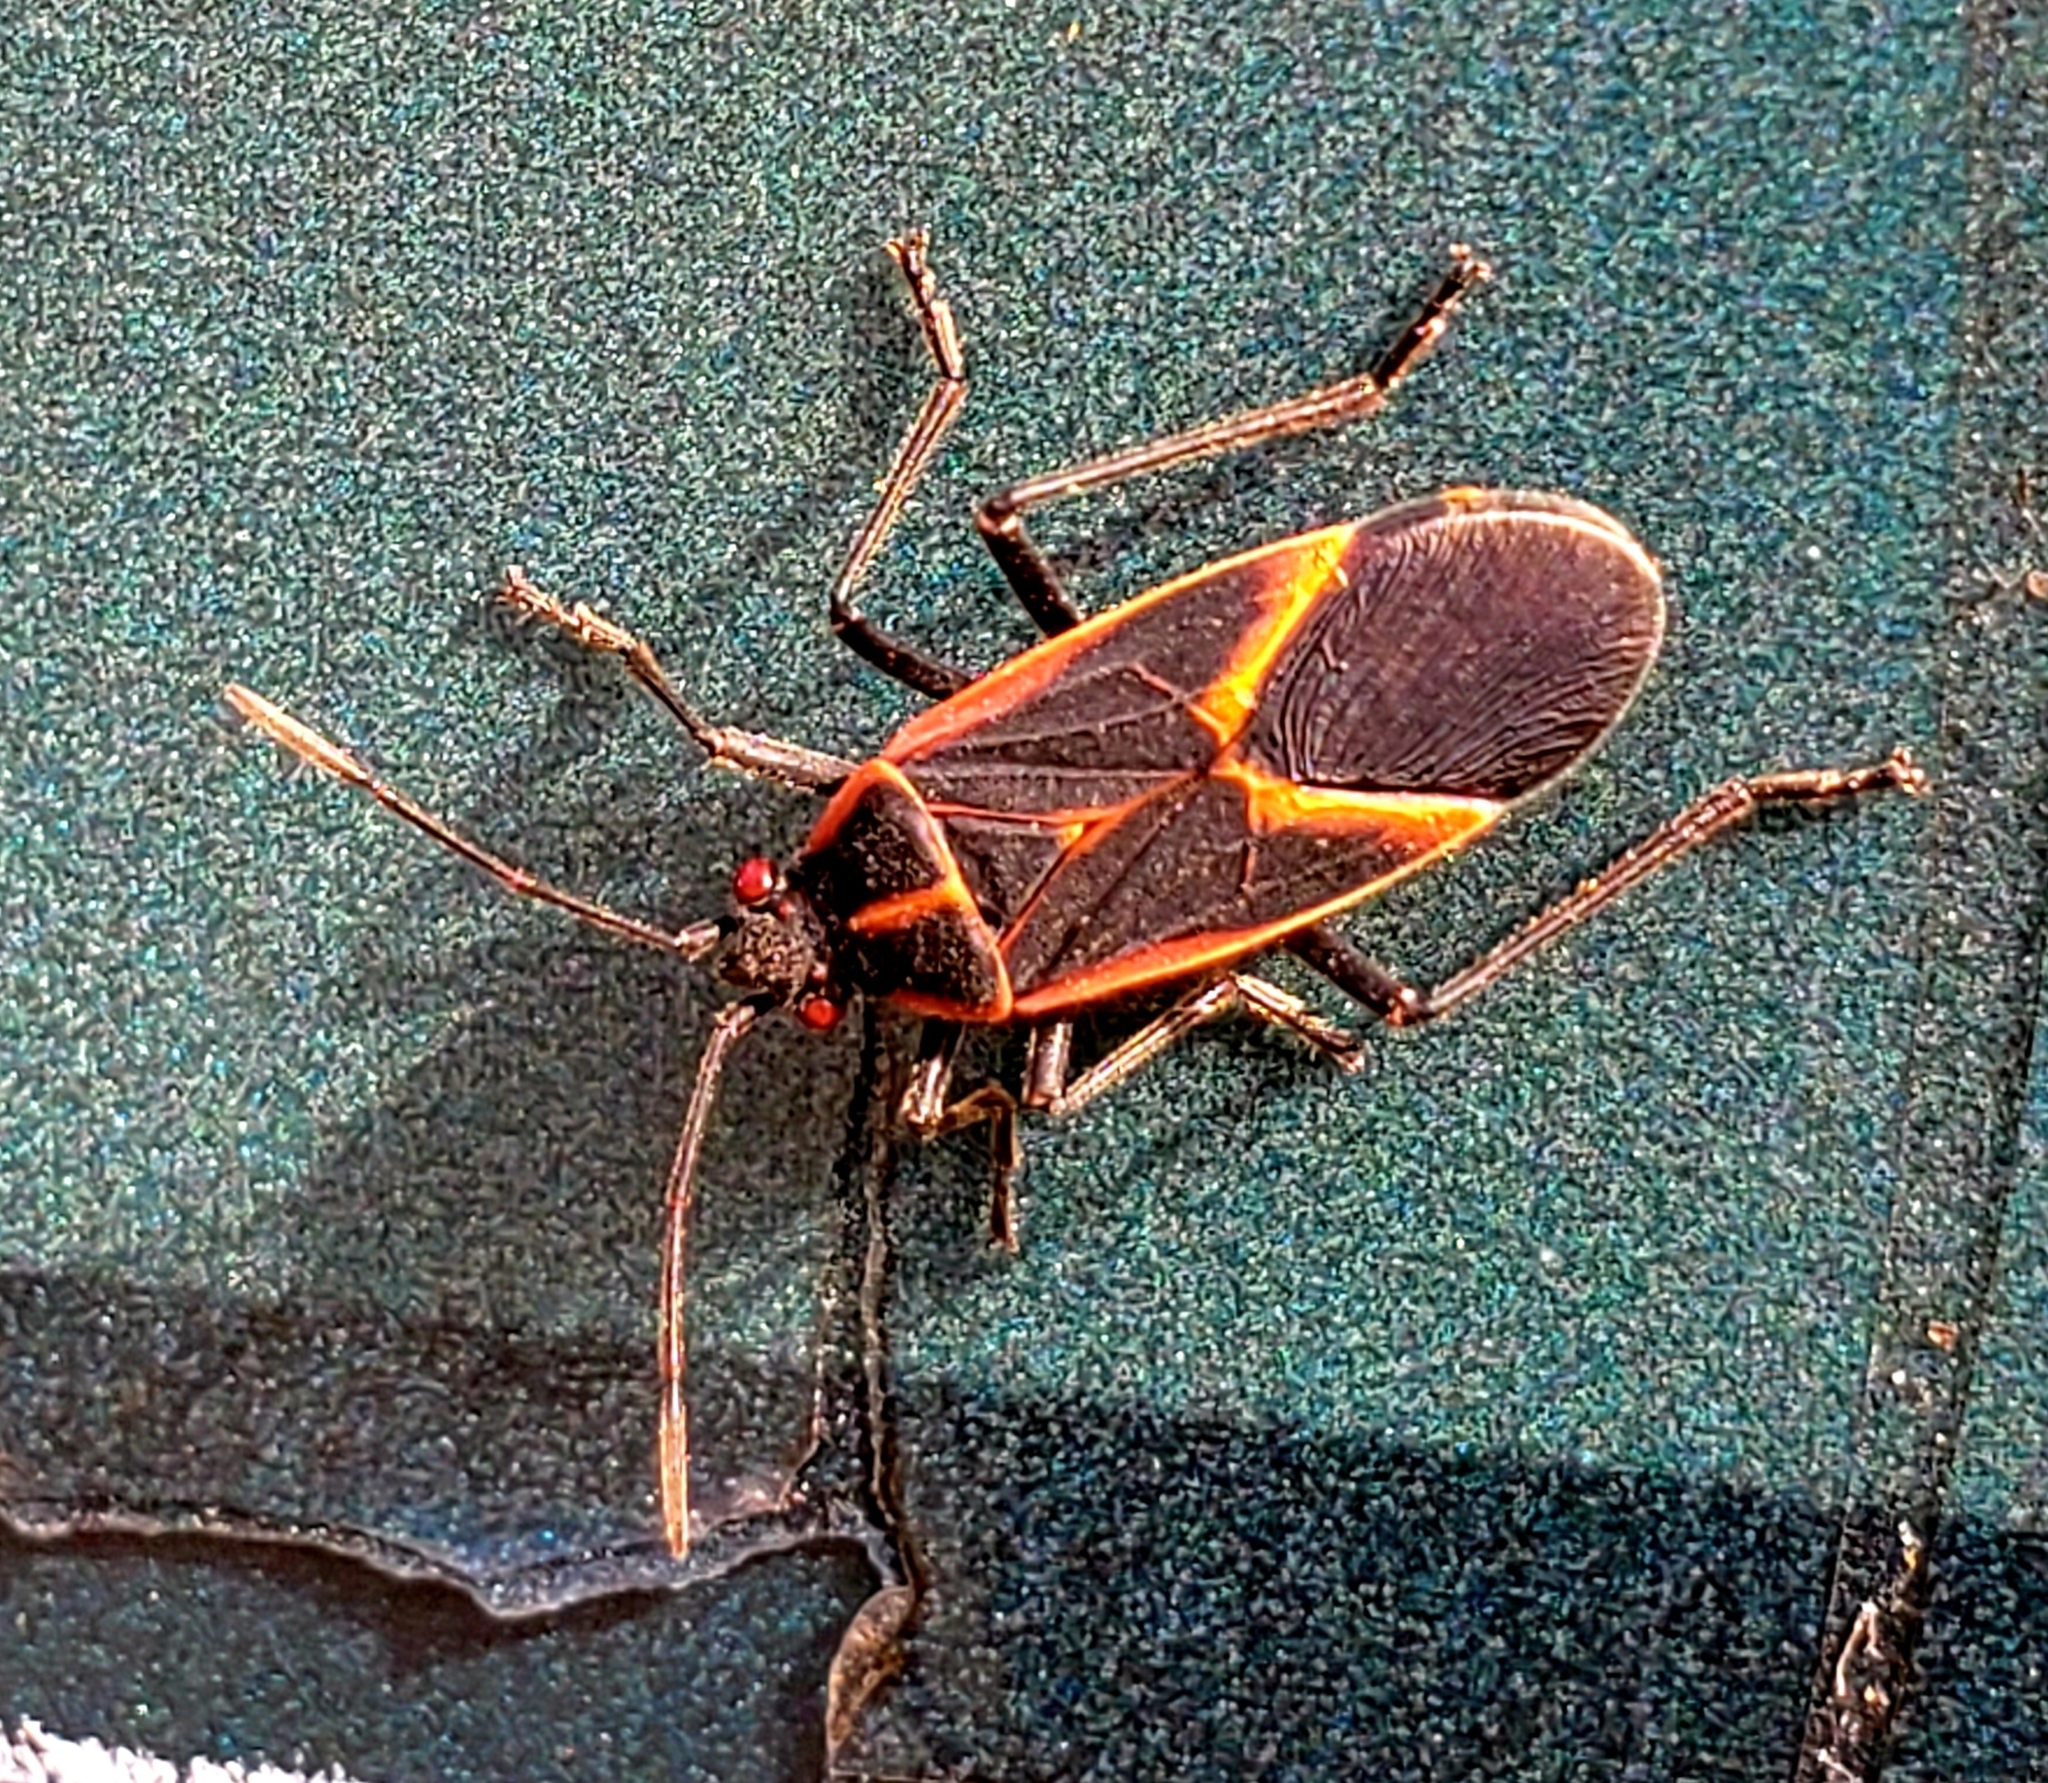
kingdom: Animalia
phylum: Arthropoda
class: Insecta
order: Hemiptera
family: Rhopalidae
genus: Boisea
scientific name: Boisea trivittata
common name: Boxelder bug
